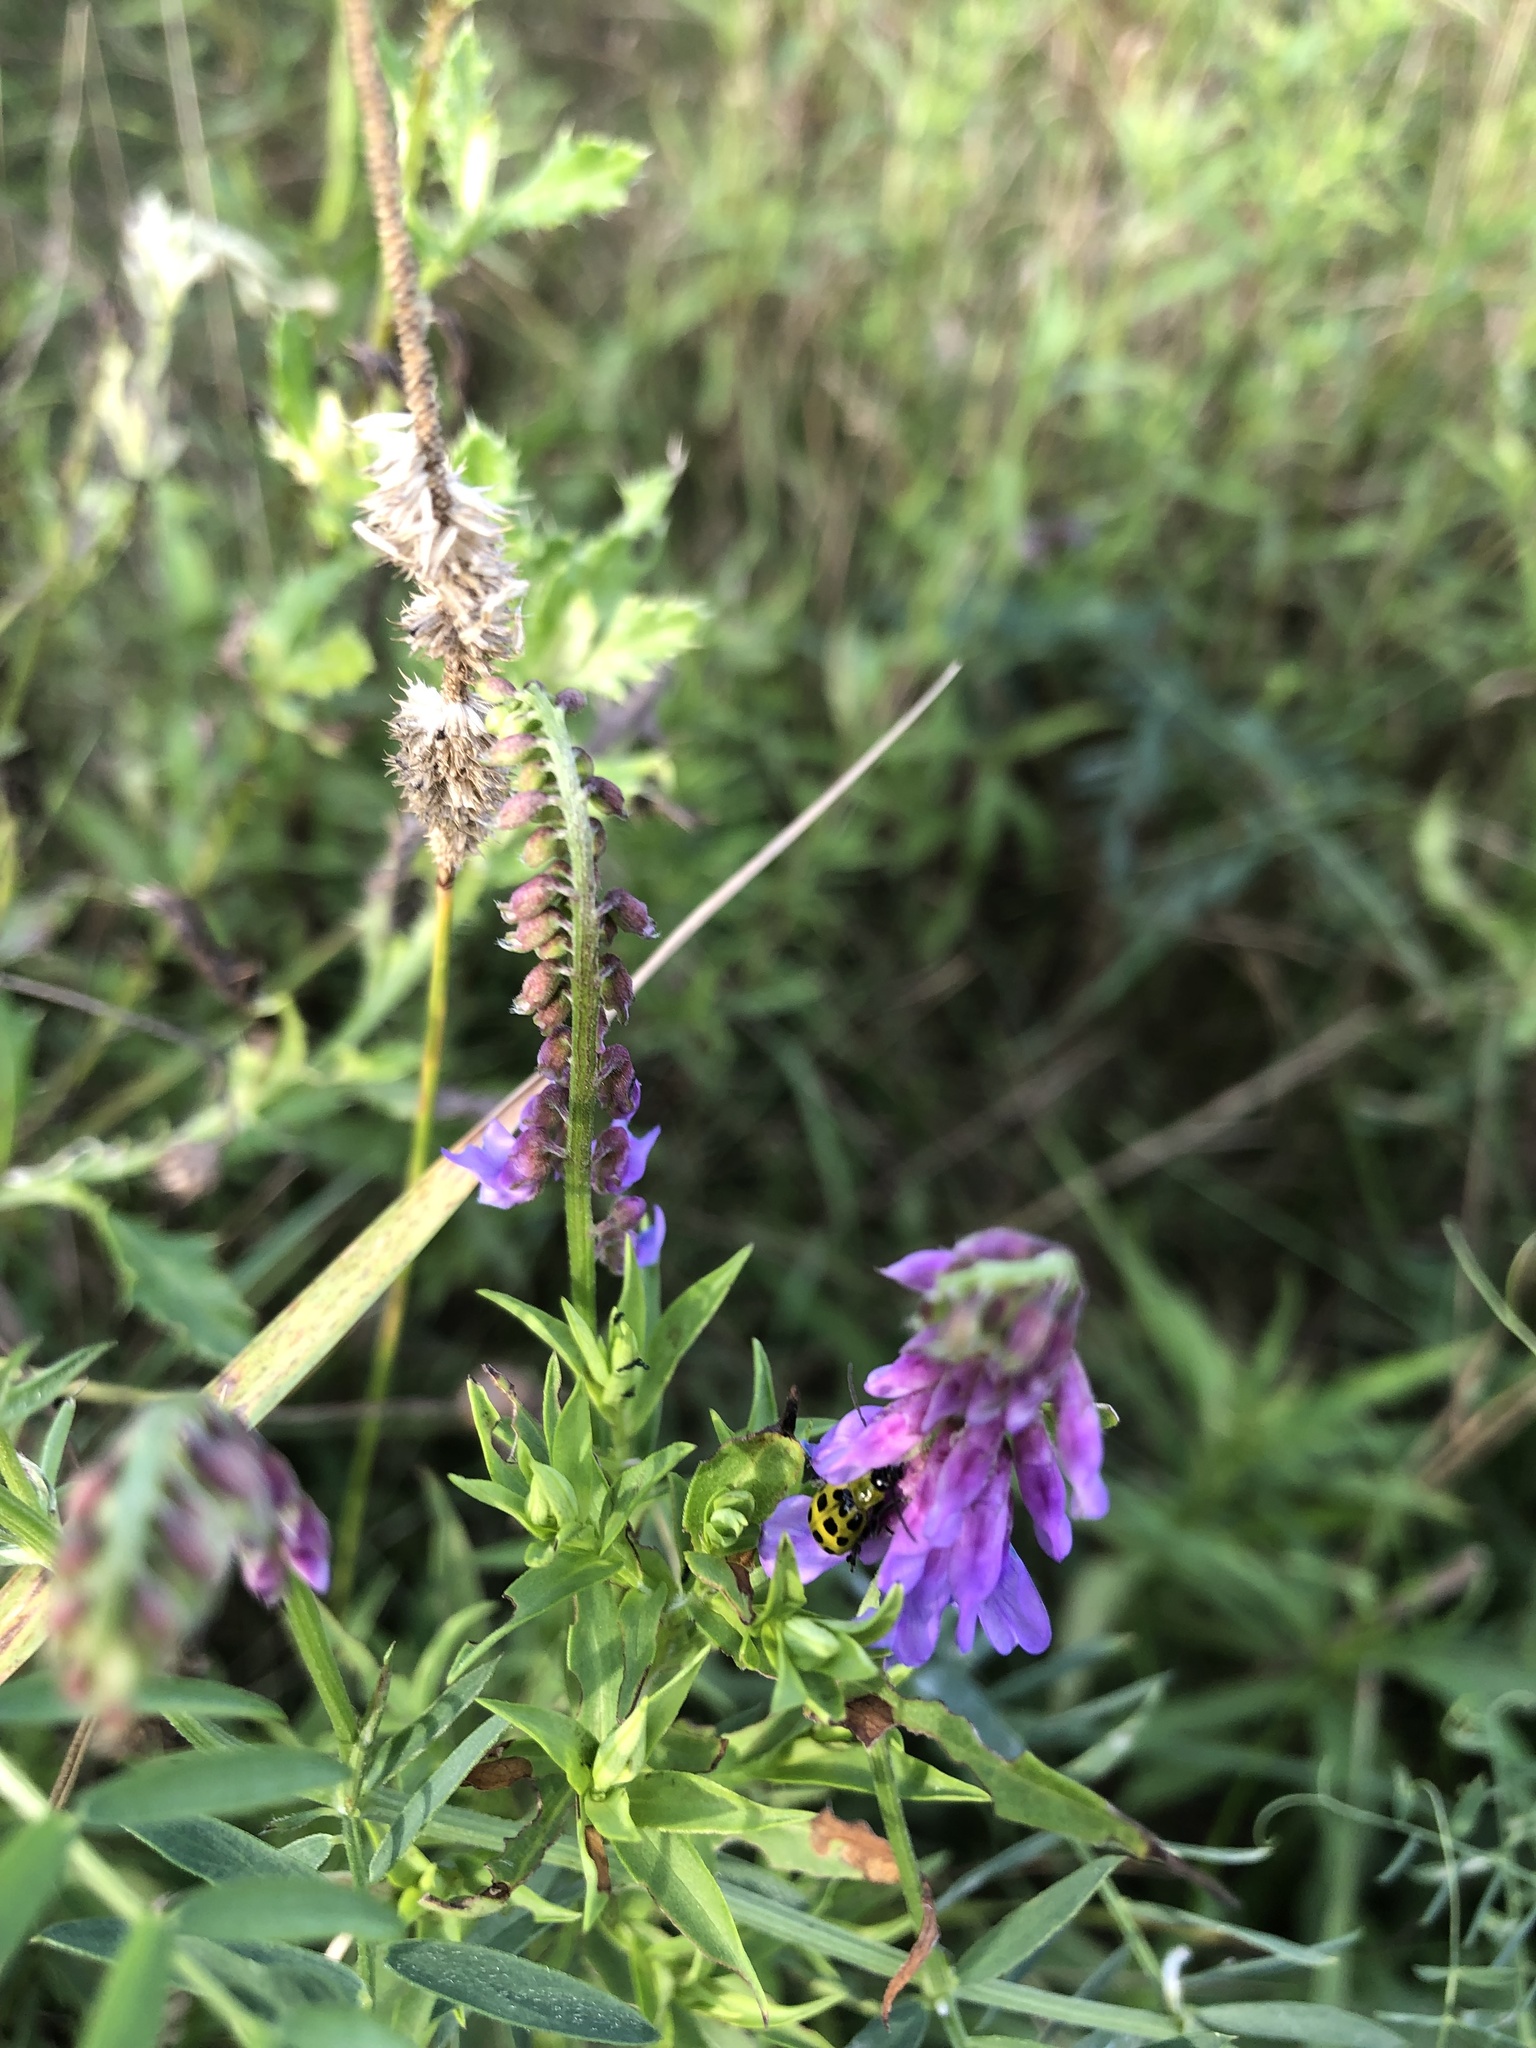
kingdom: Plantae
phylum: Tracheophyta
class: Magnoliopsida
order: Fabales
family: Fabaceae
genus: Vicia
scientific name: Vicia cracca
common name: Bird vetch
